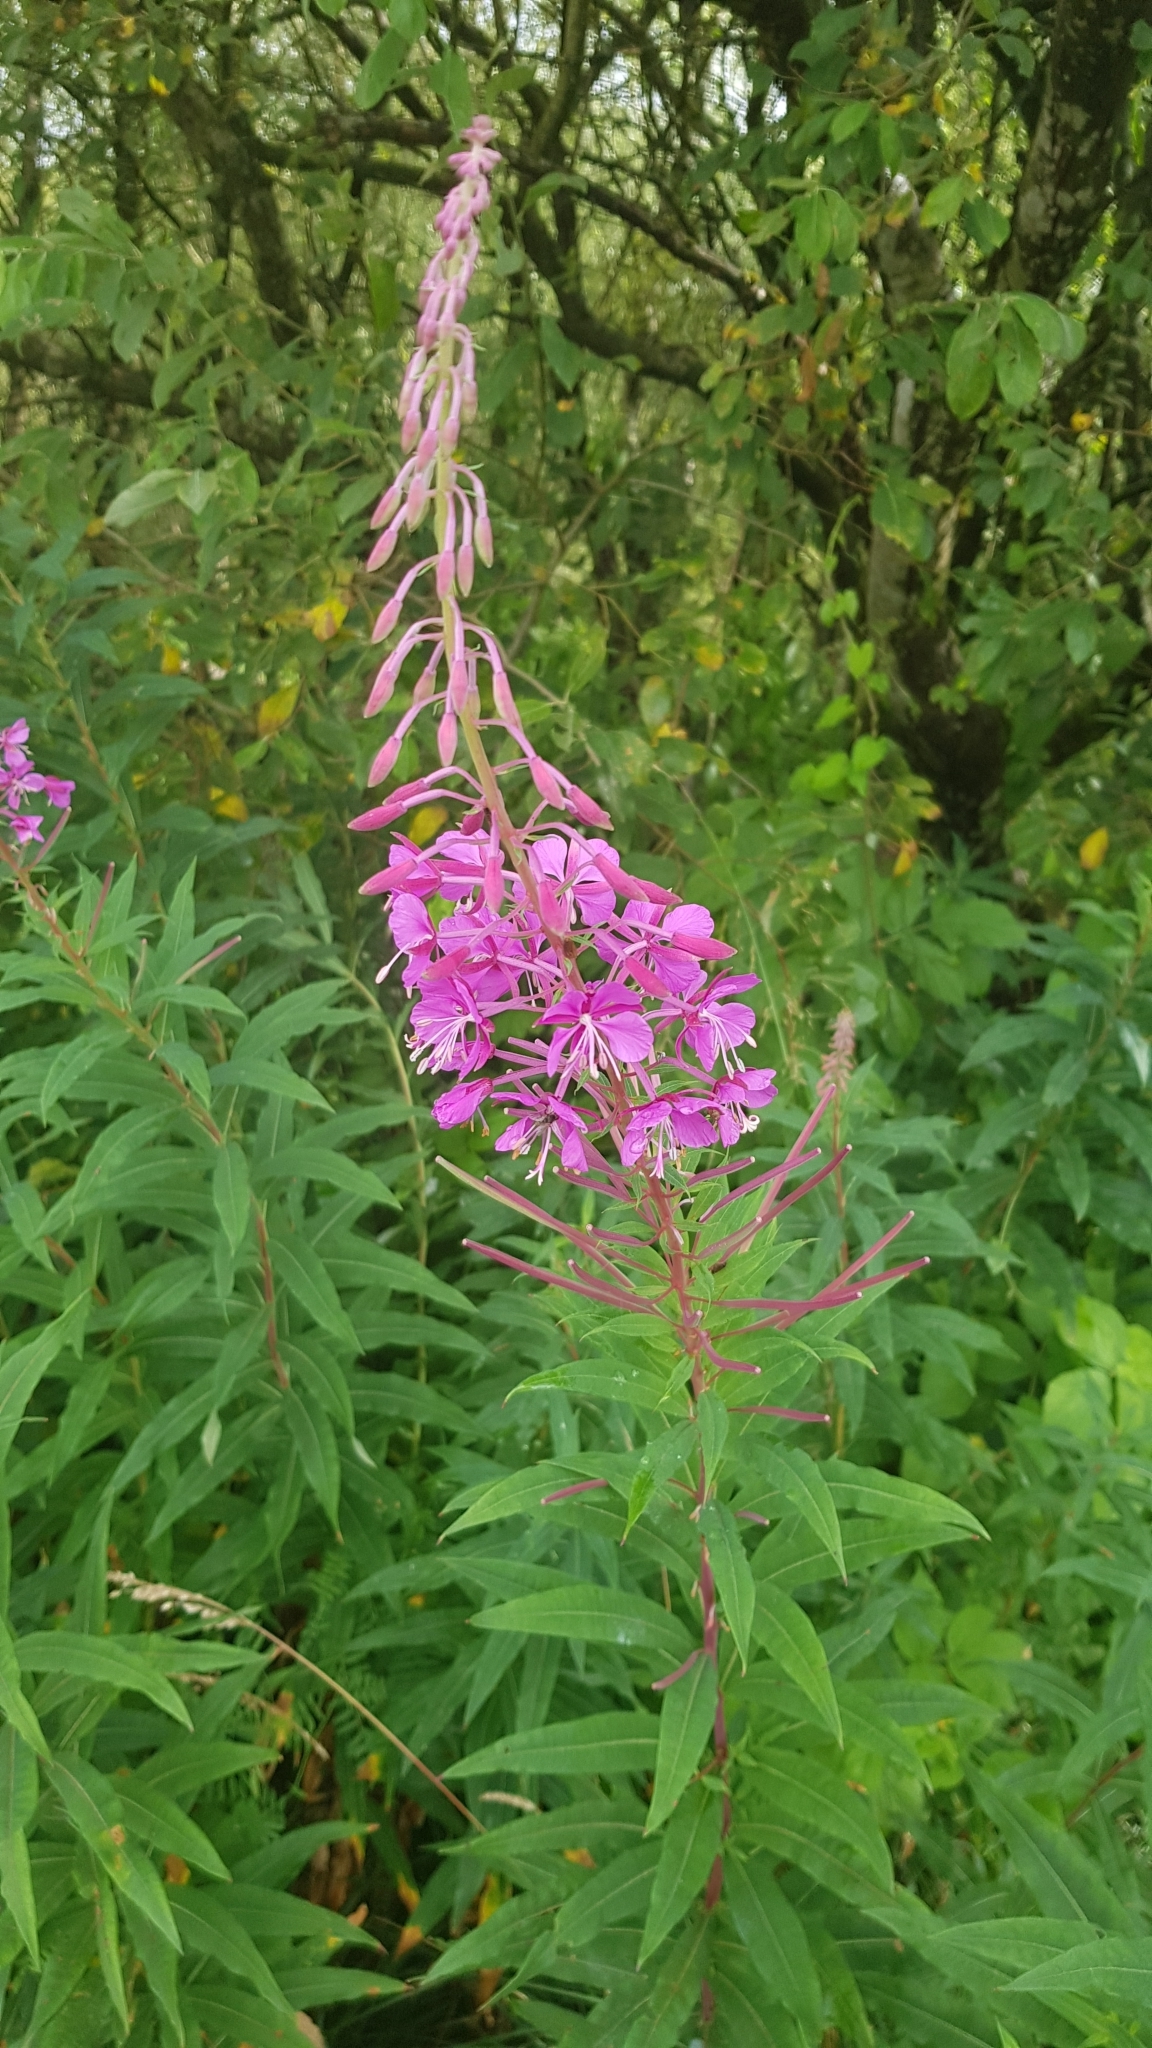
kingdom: Plantae
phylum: Tracheophyta
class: Magnoliopsida
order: Myrtales
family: Onagraceae
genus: Chamaenerion
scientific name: Chamaenerion angustifolium
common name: Fireweed
